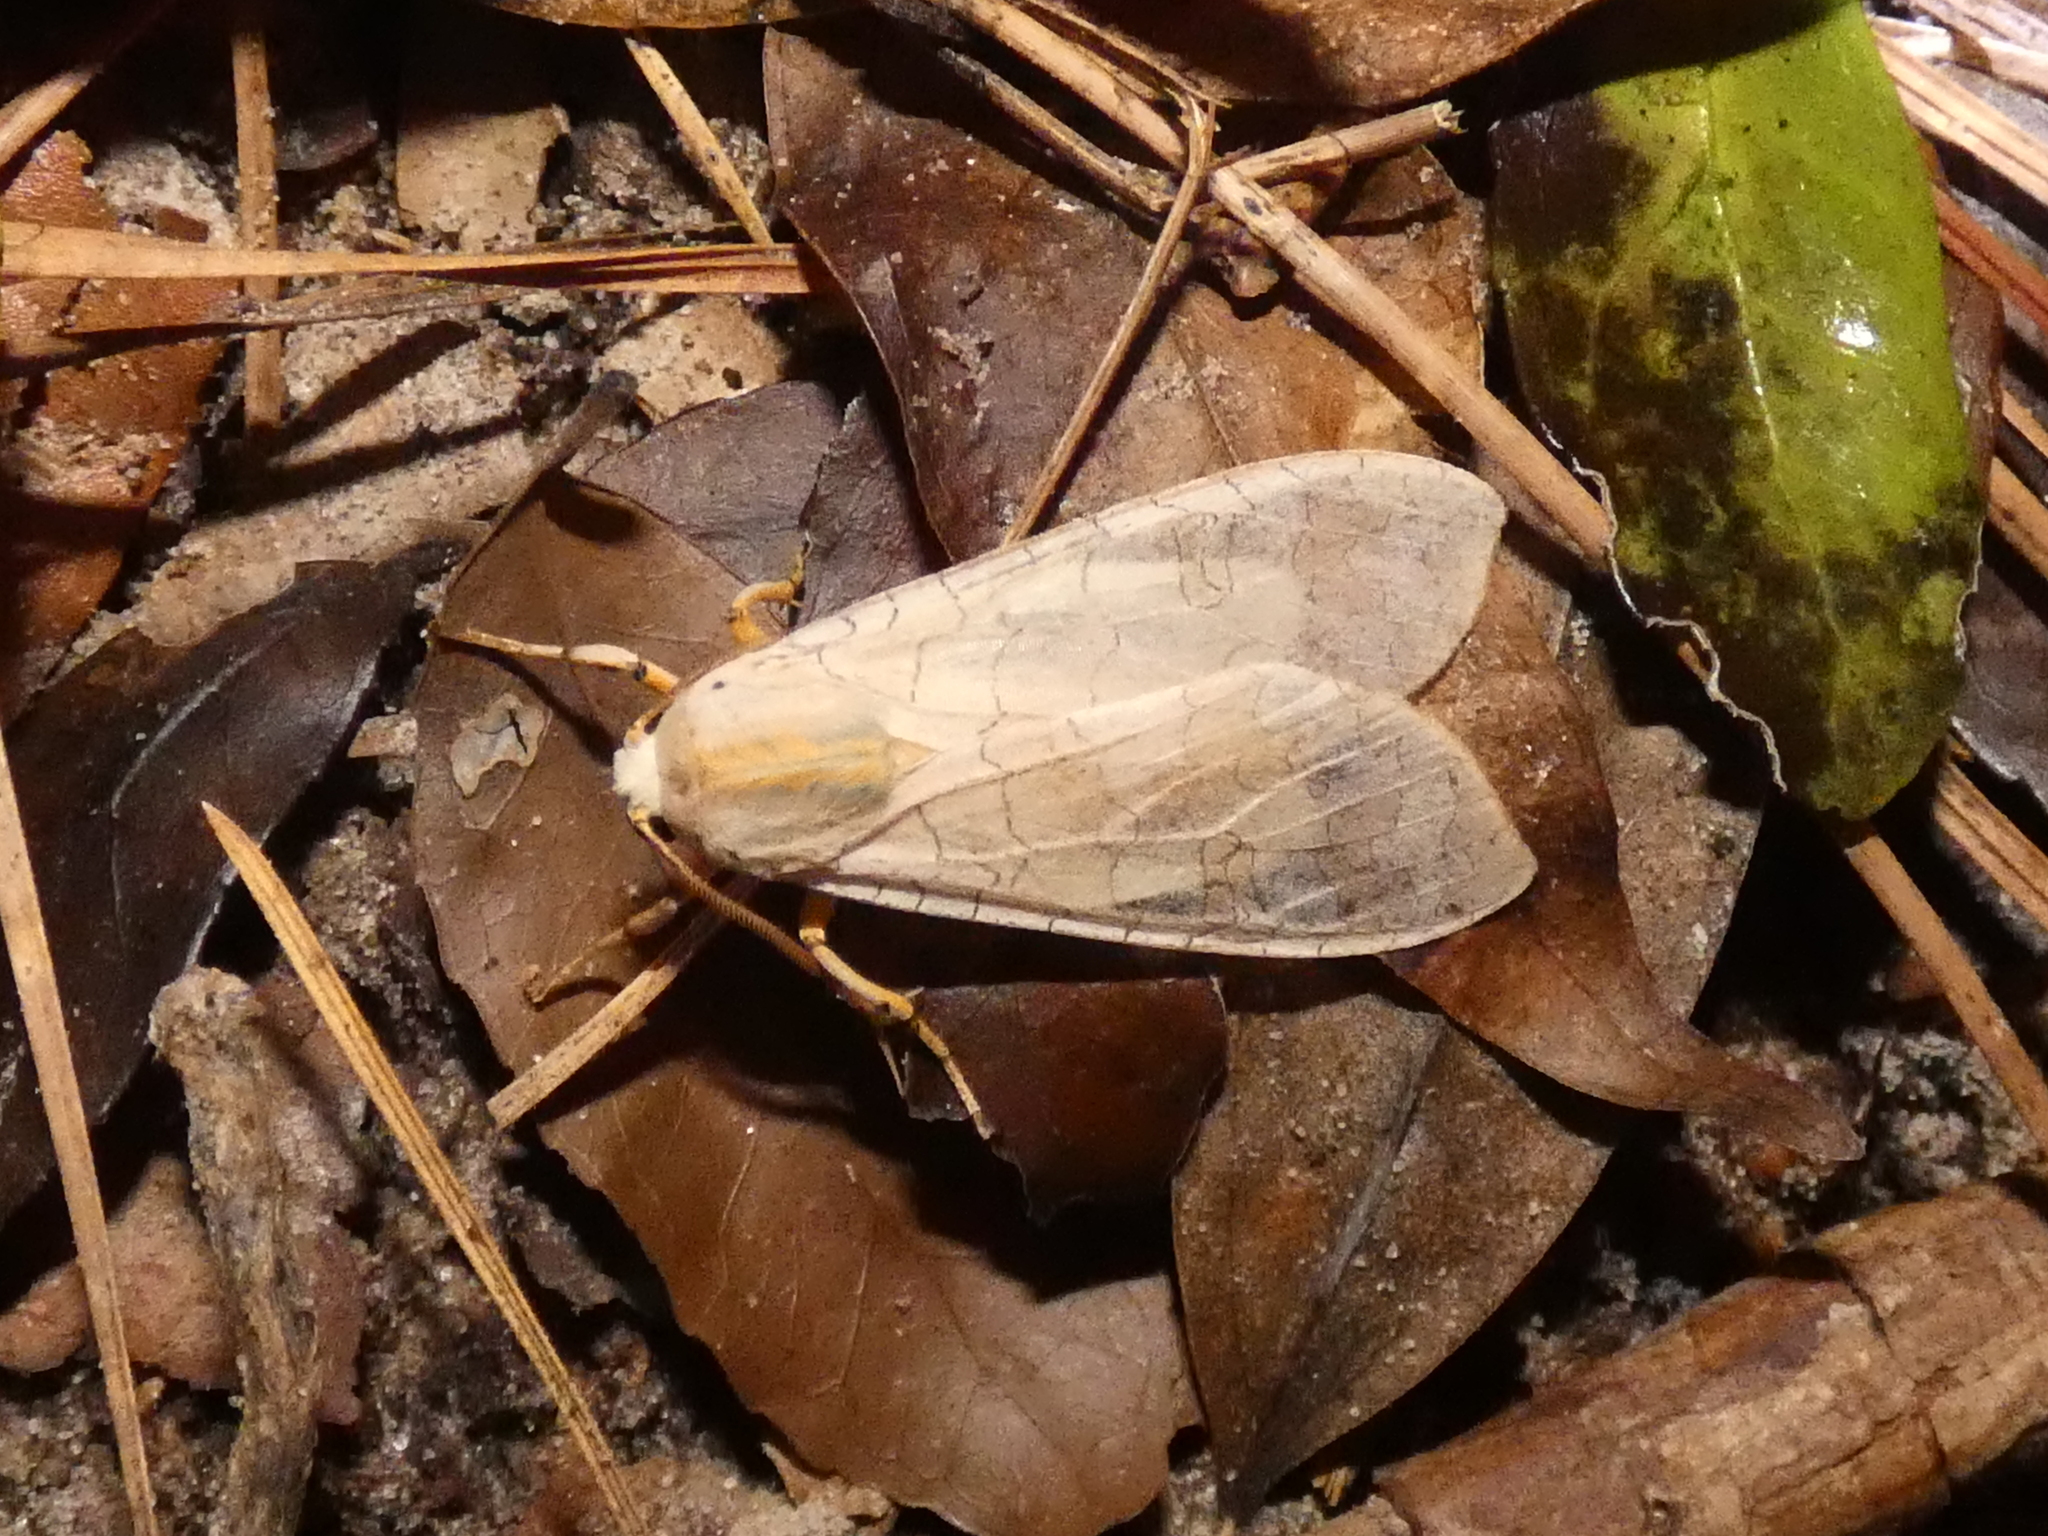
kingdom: Animalia
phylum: Arthropoda
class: Insecta
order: Lepidoptera
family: Erebidae
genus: Halysidota
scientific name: Halysidota
